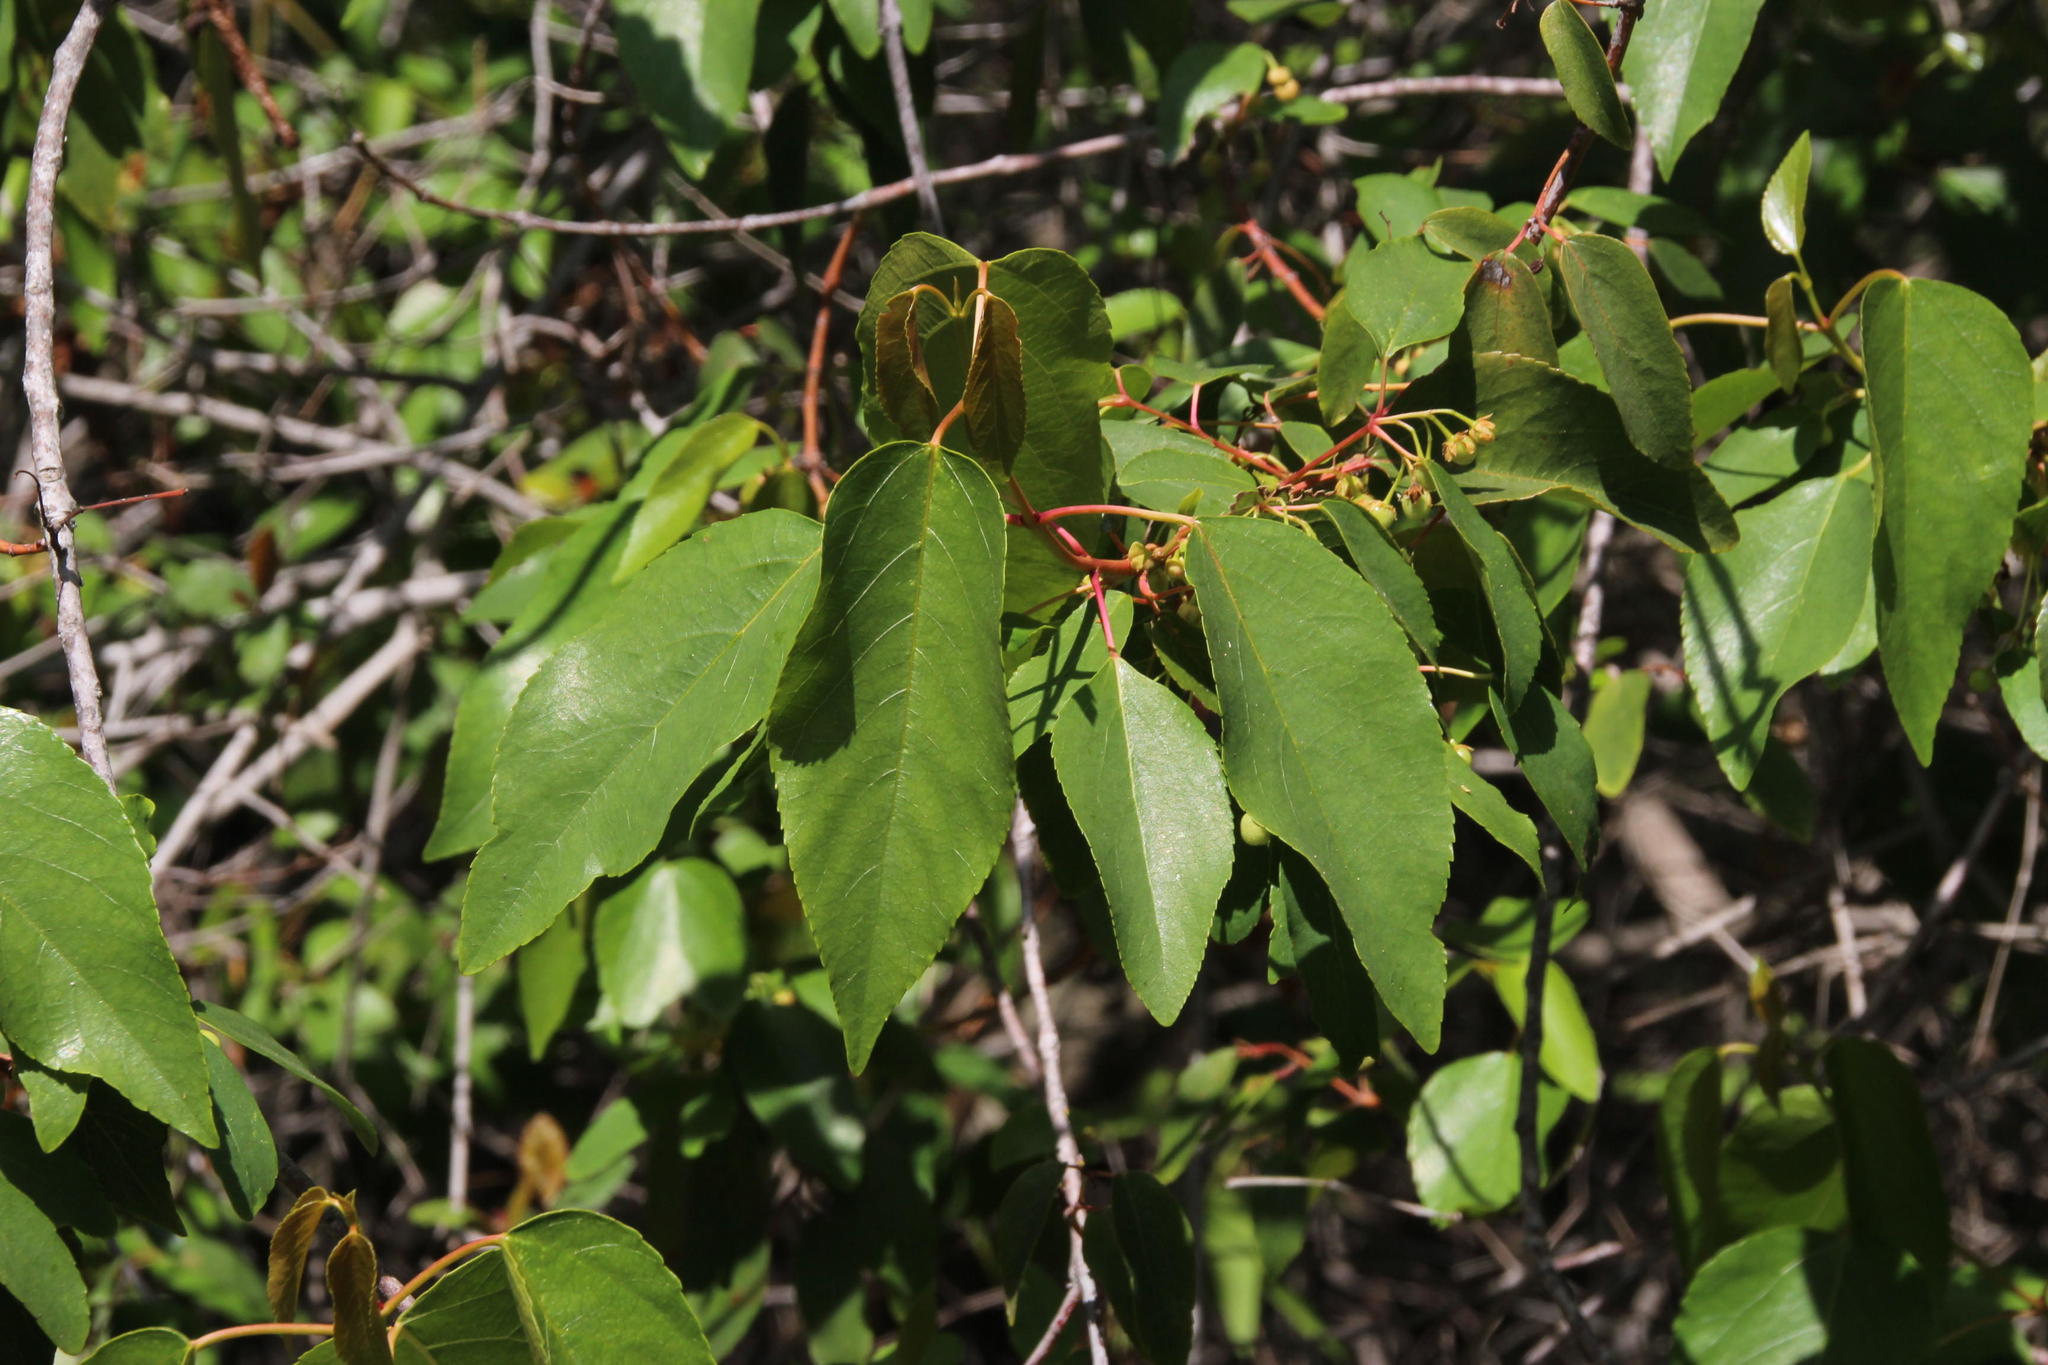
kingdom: Plantae
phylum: Tracheophyta
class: Magnoliopsida
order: Oxalidales
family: Elaeocarpaceae
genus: Aristotelia
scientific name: Aristotelia chilensis
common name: Maquei
